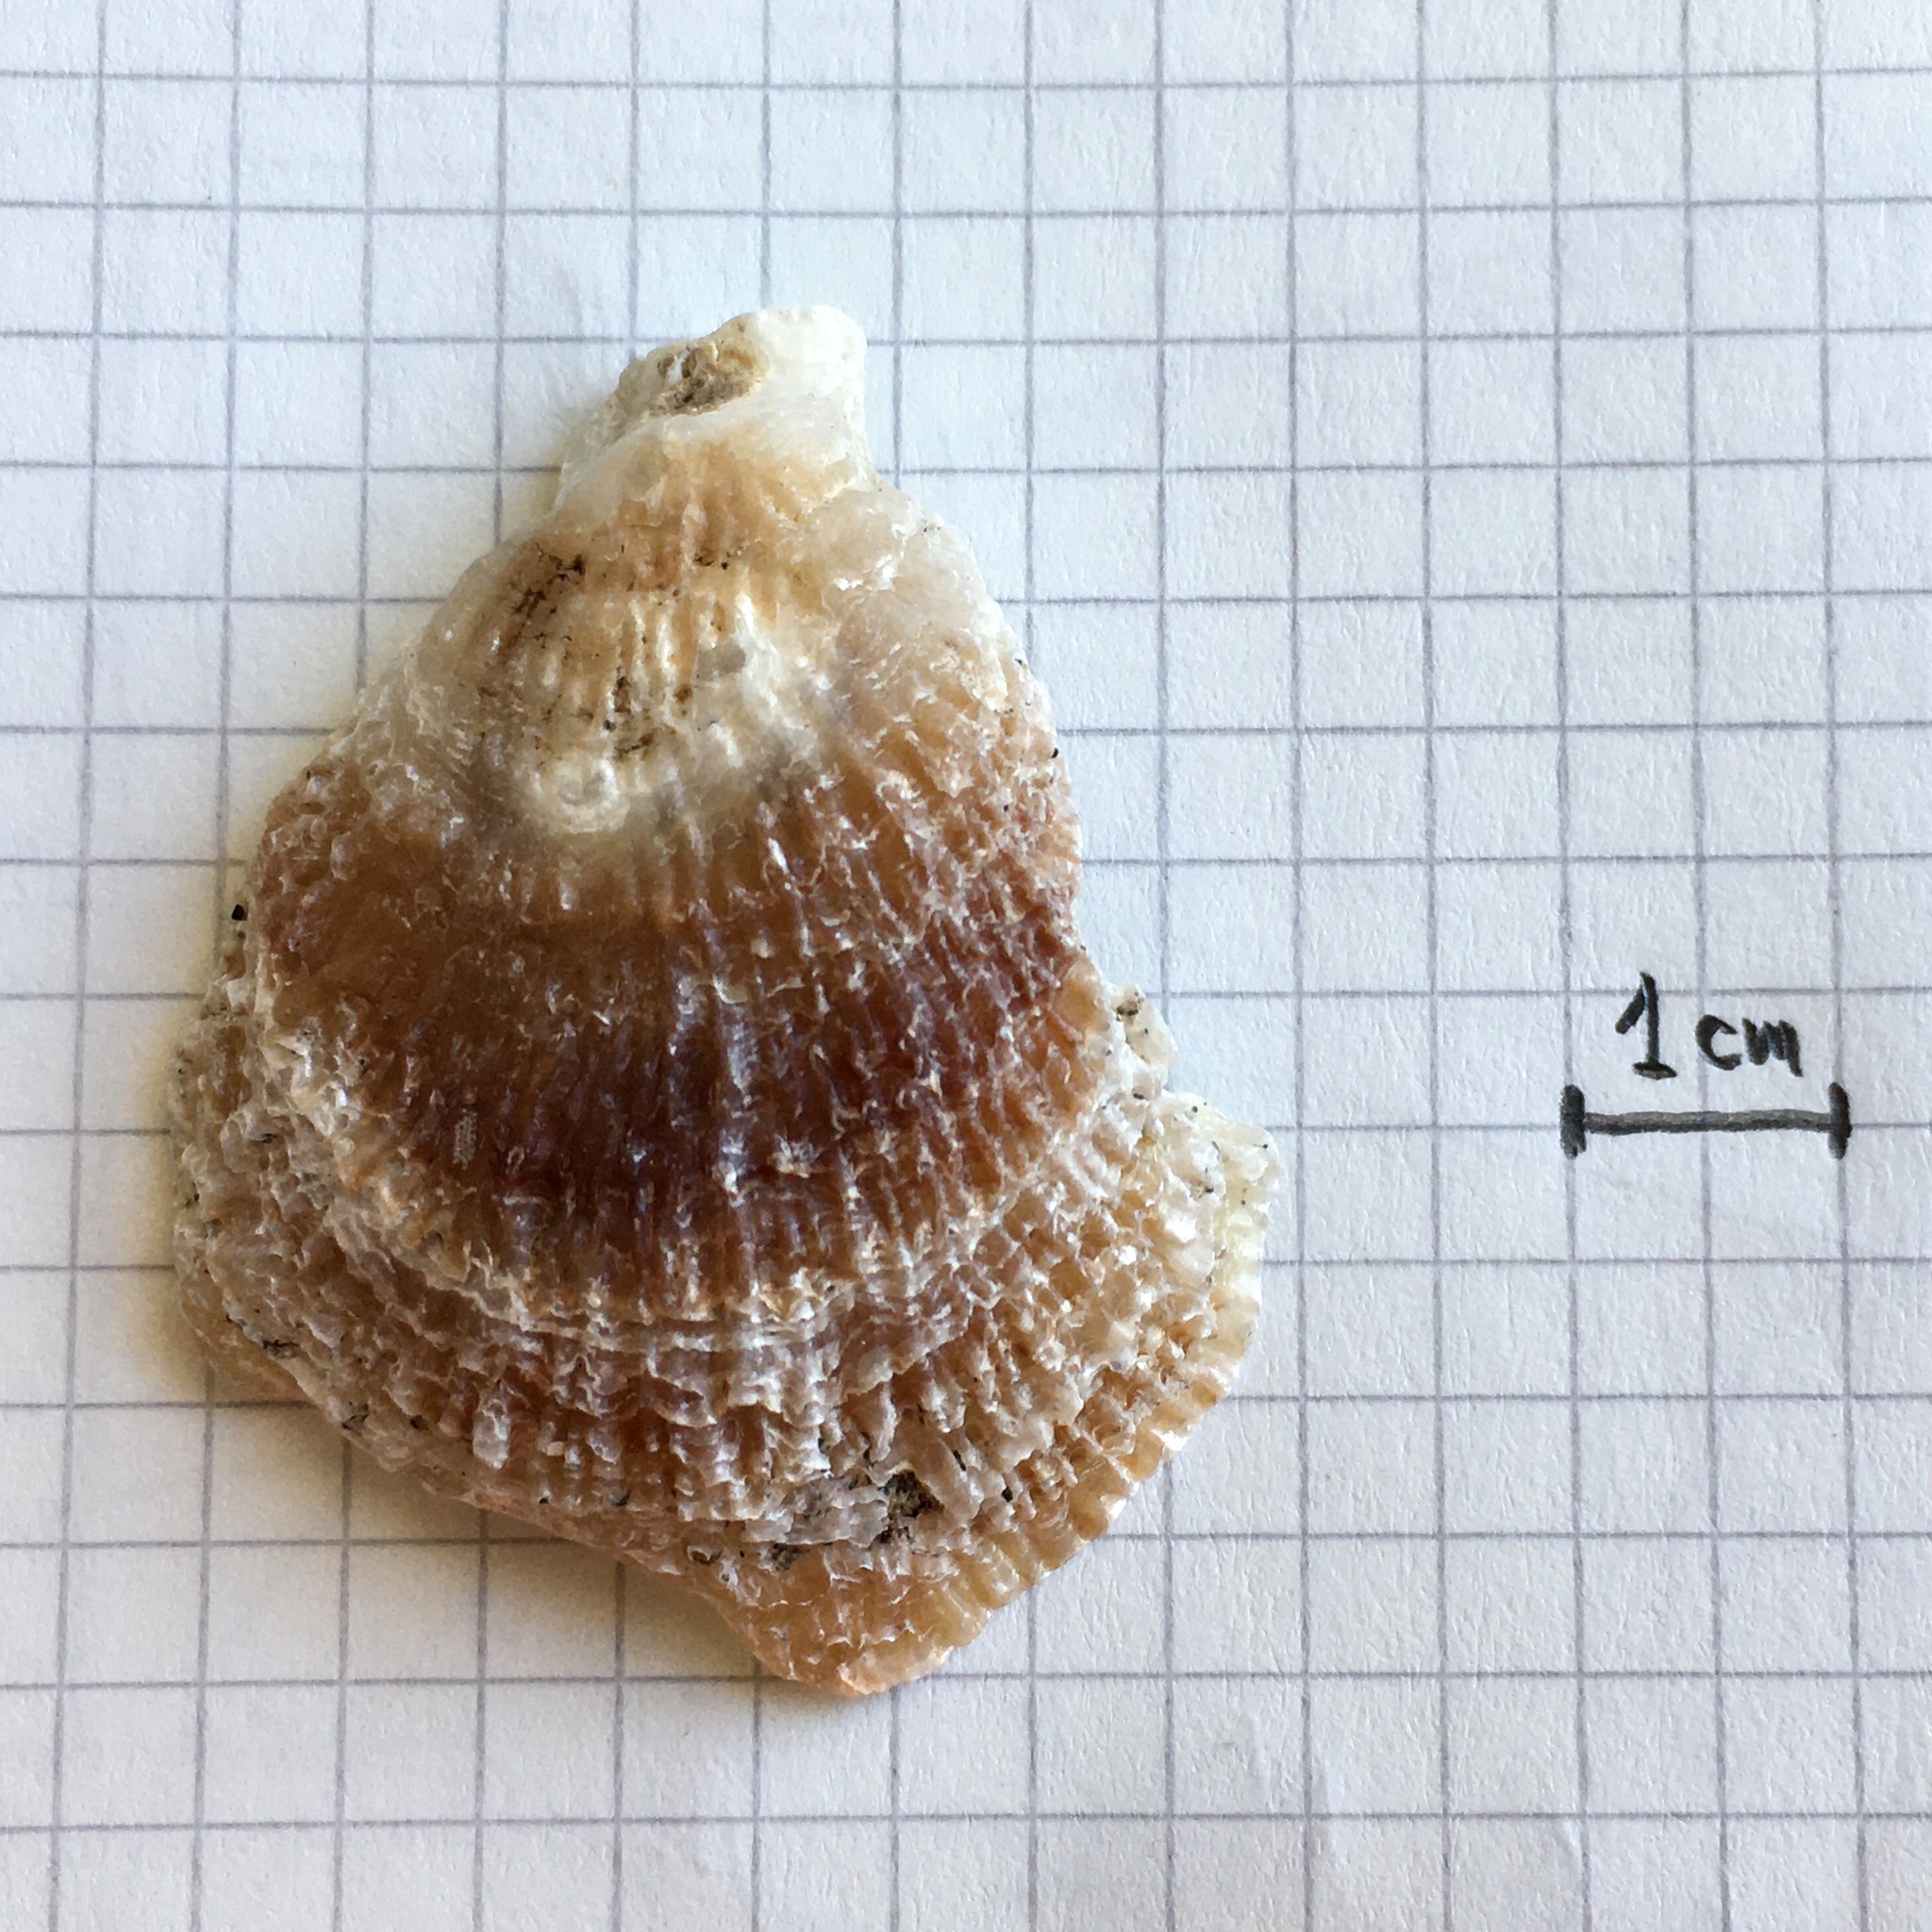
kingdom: Animalia
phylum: Mollusca
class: Bivalvia
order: Pectinida
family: Anomiidae
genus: Pododesmus
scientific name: Pododesmus rudis
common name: Atlantic false jingle
